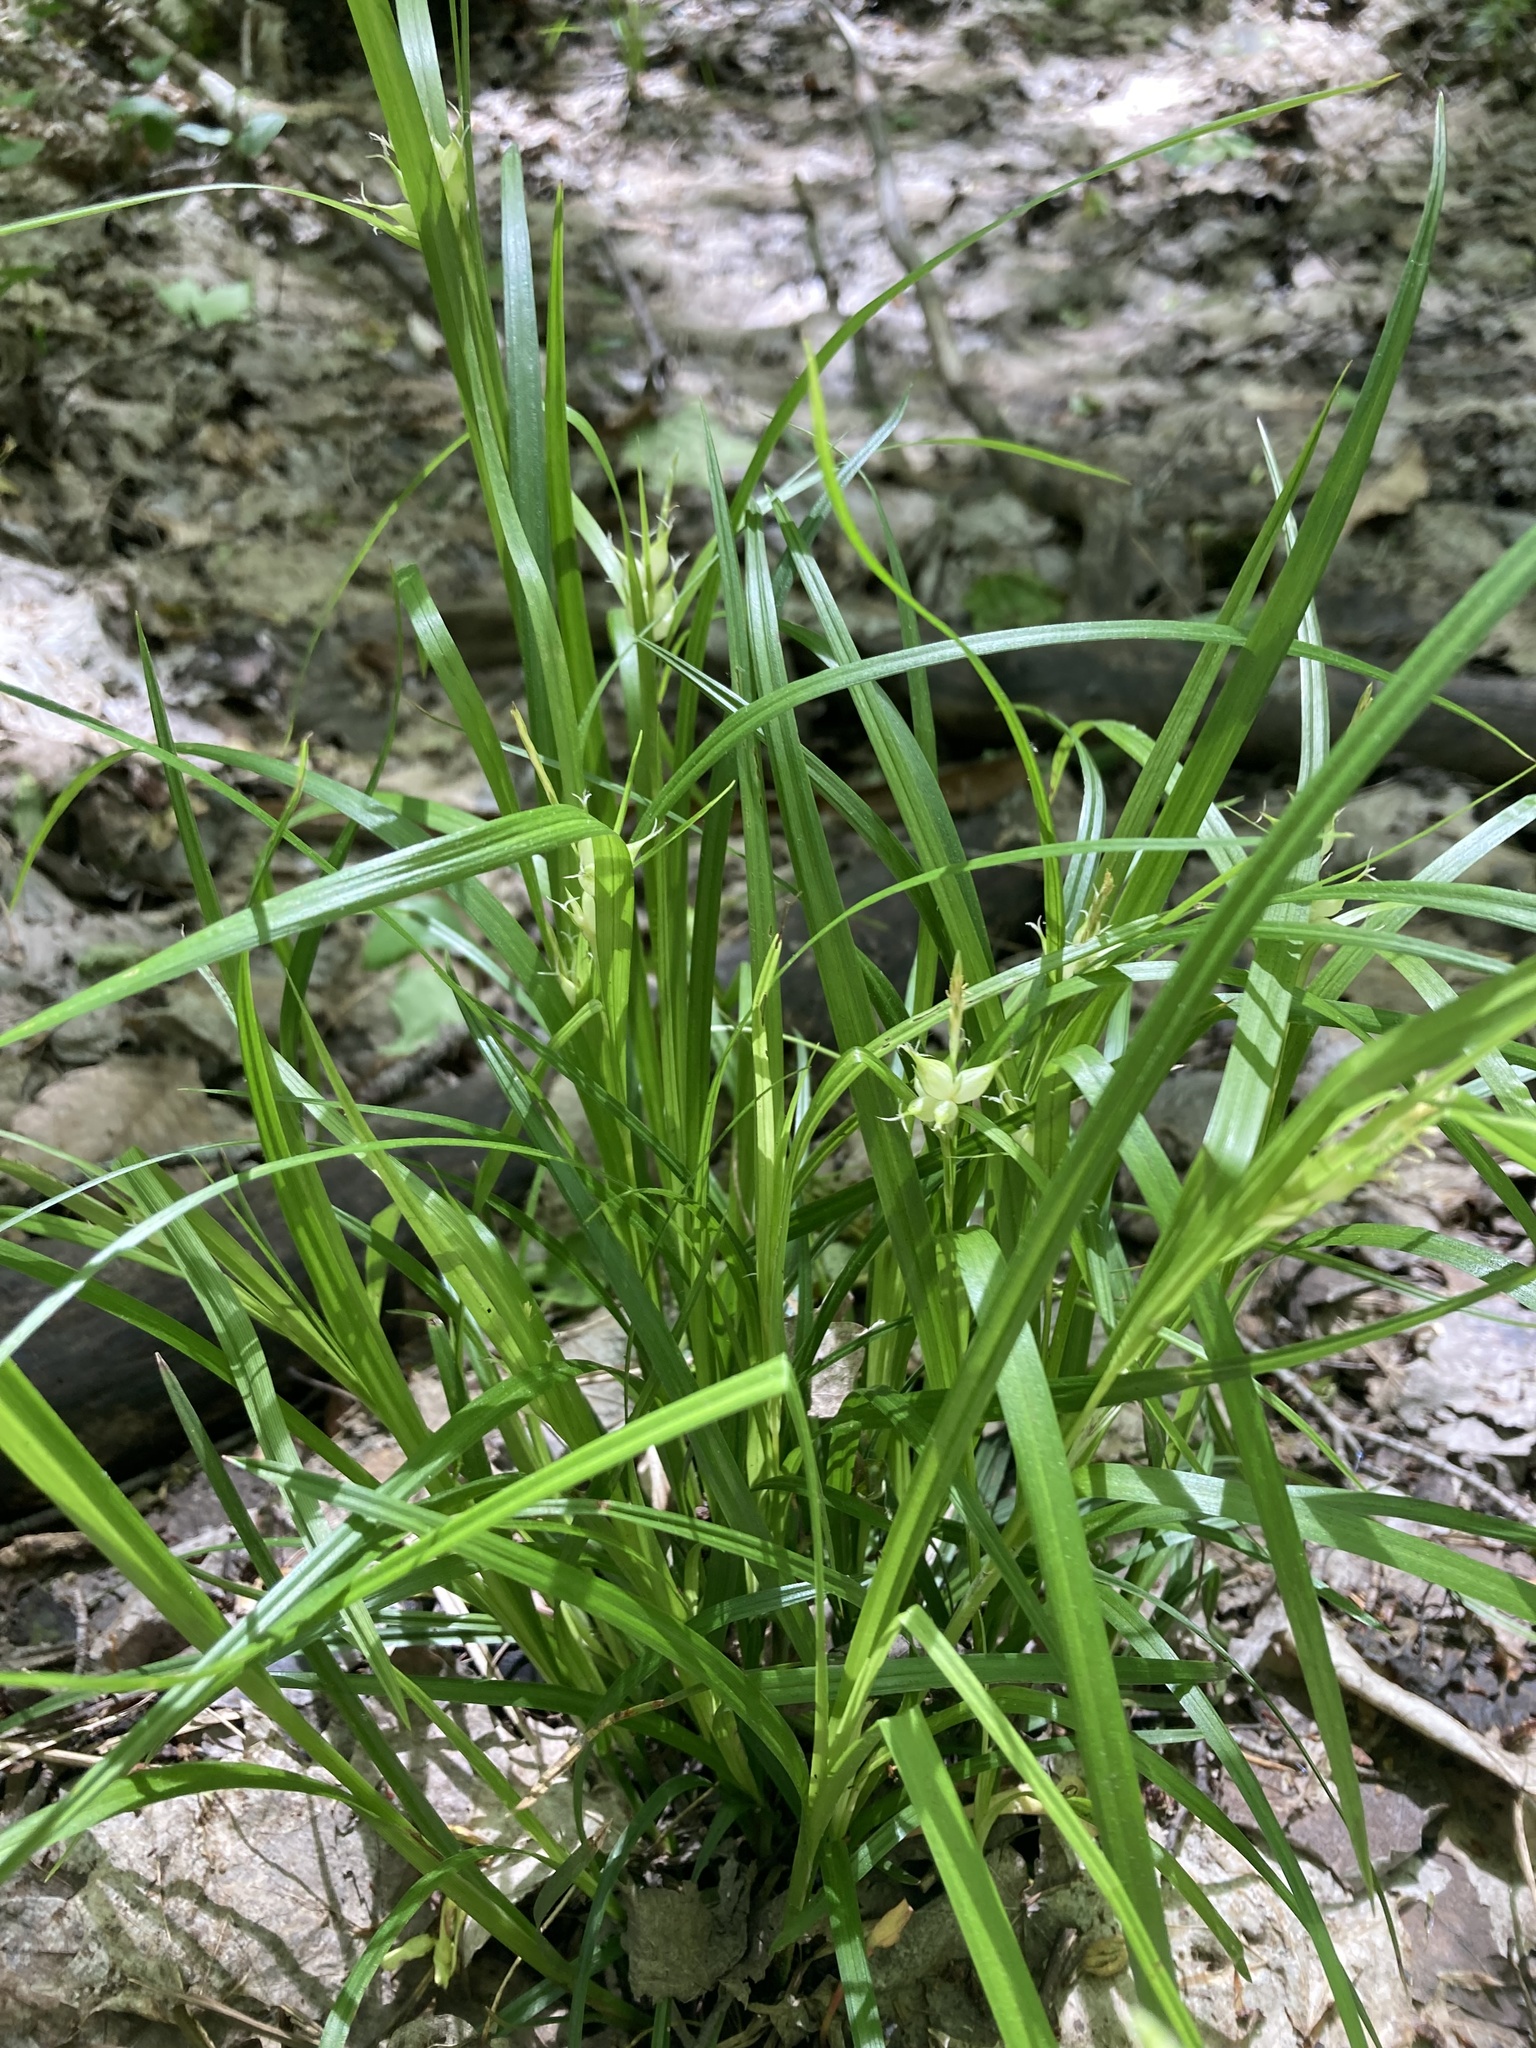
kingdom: Plantae
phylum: Tracheophyta
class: Liliopsida
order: Poales
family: Cyperaceae
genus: Carex
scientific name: Carex intumescens
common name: Greater bladder sedge
